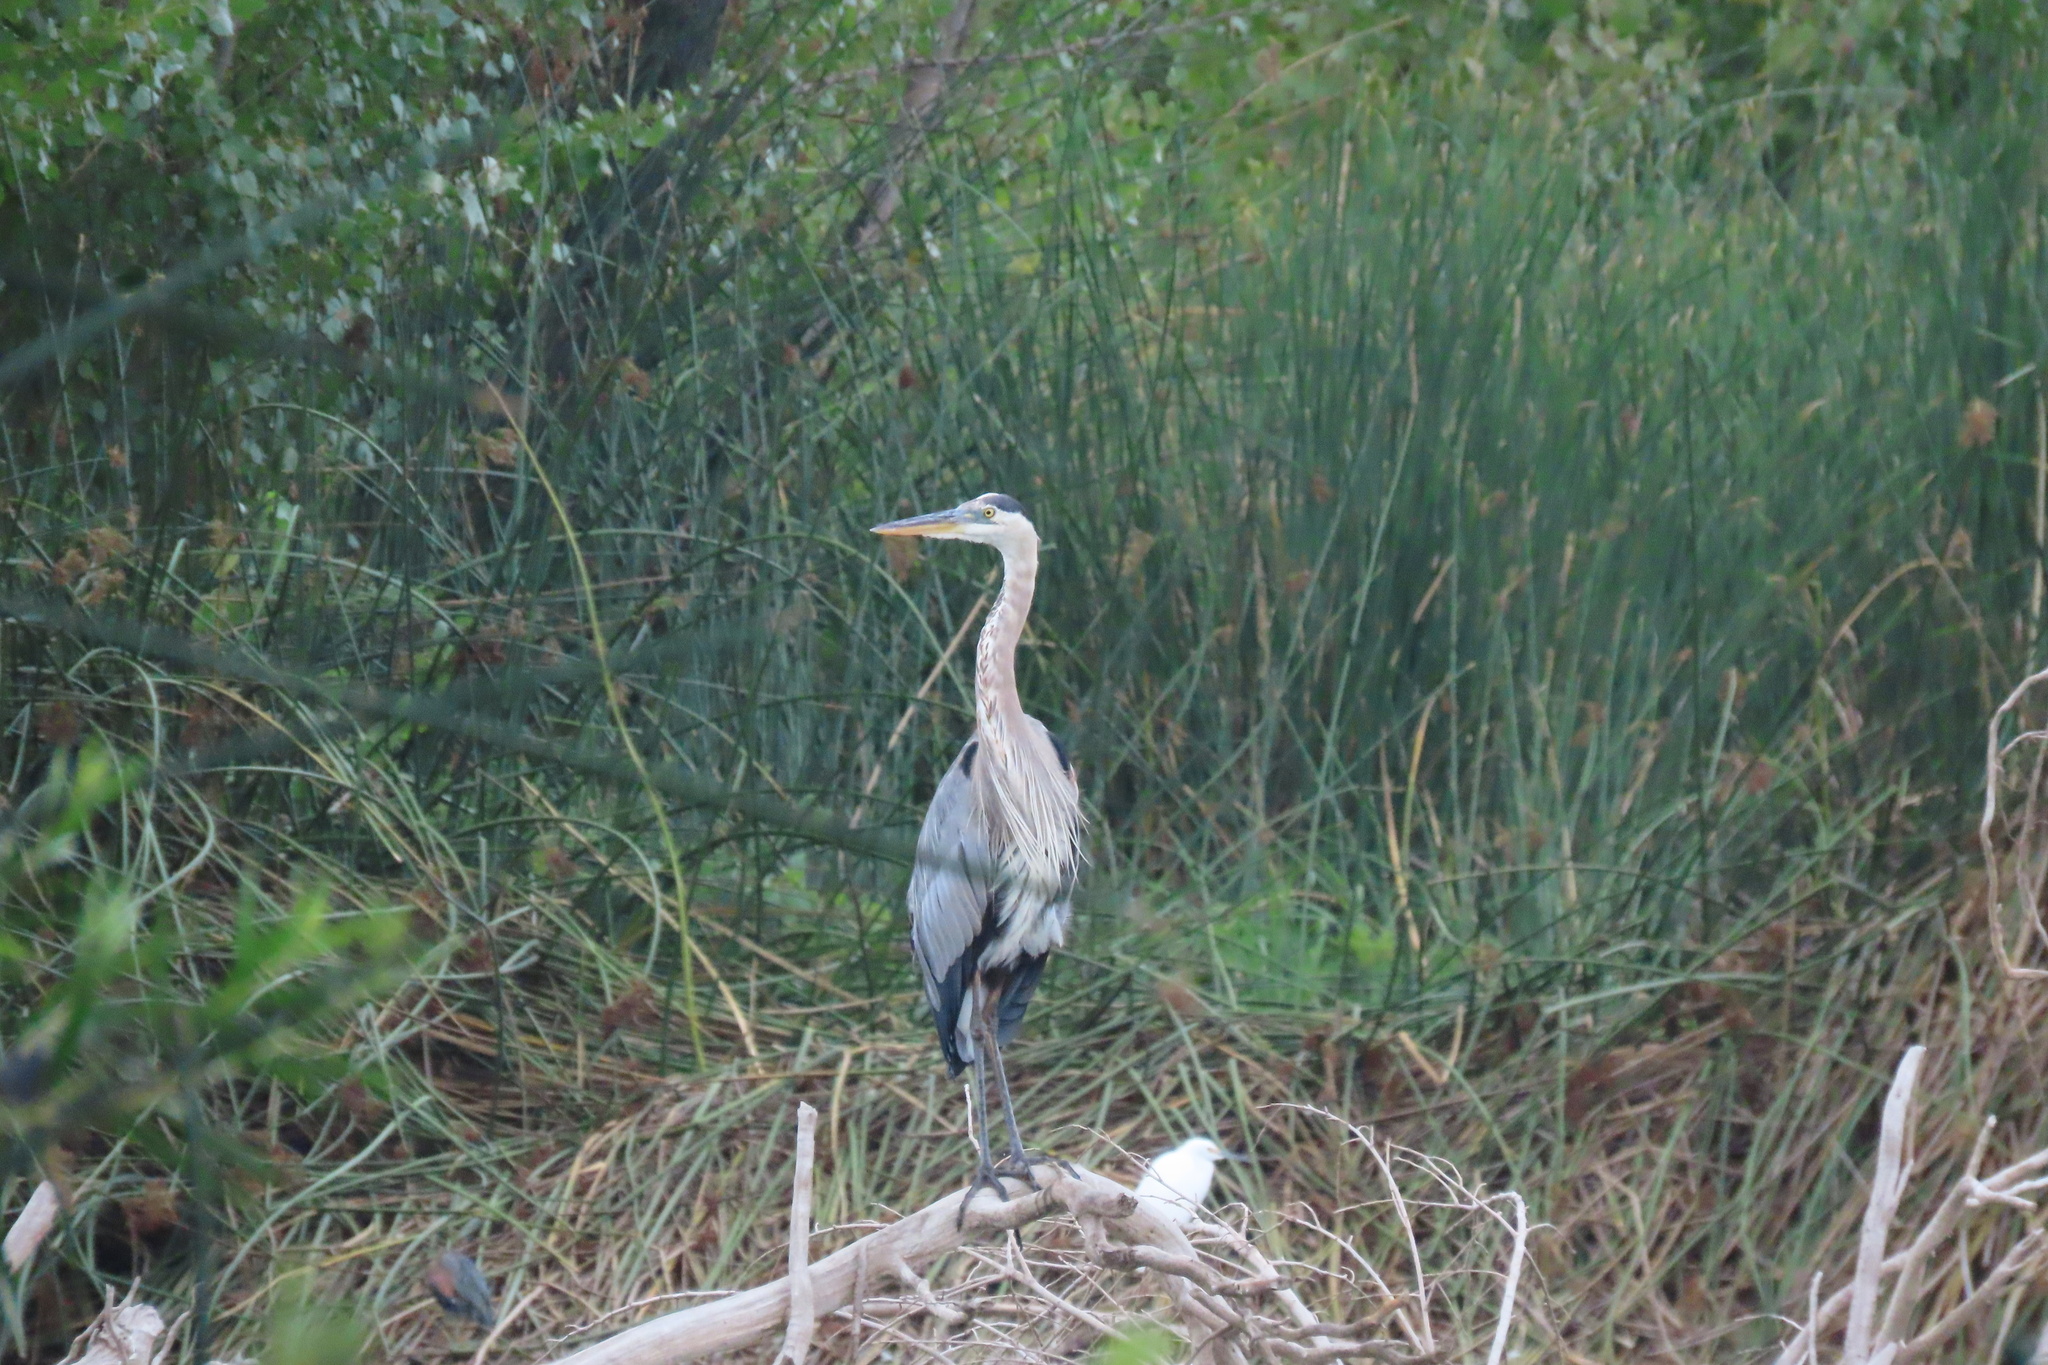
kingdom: Animalia
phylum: Chordata
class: Aves
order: Pelecaniformes
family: Ardeidae
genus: Ardea
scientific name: Ardea herodias
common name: Great blue heron
